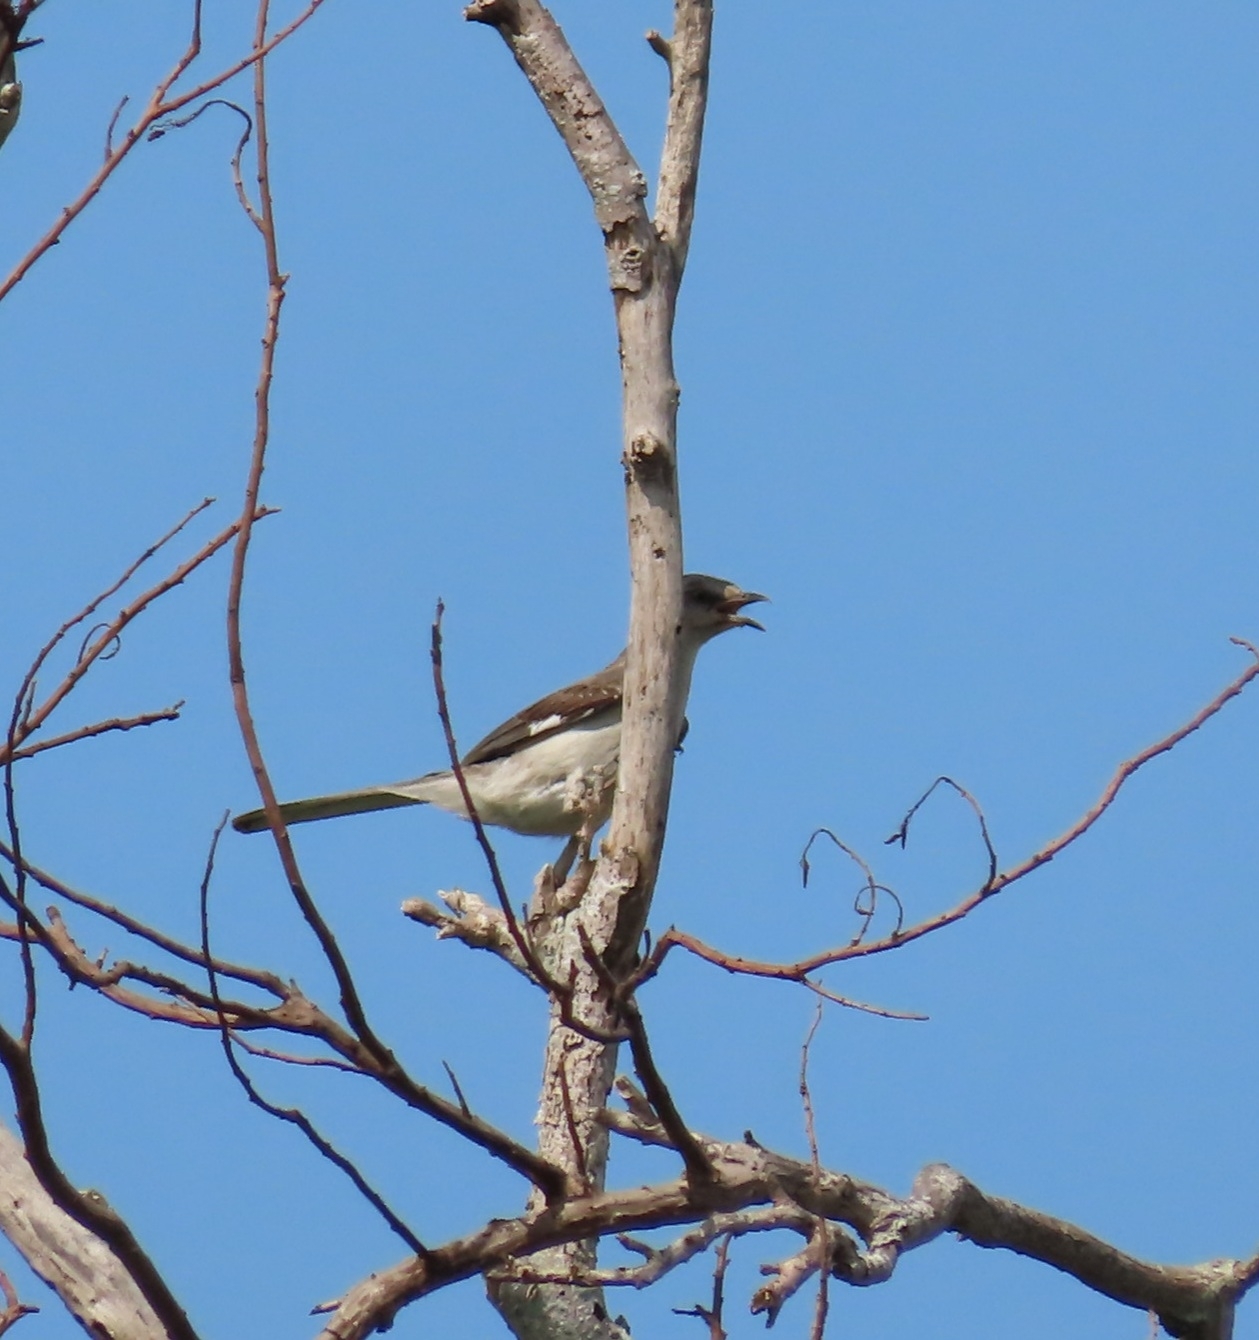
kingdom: Animalia
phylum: Chordata
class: Aves
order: Passeriformes
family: Mimidae
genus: Mimus
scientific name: Mimus polyglottos
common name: Northern mockingbird
